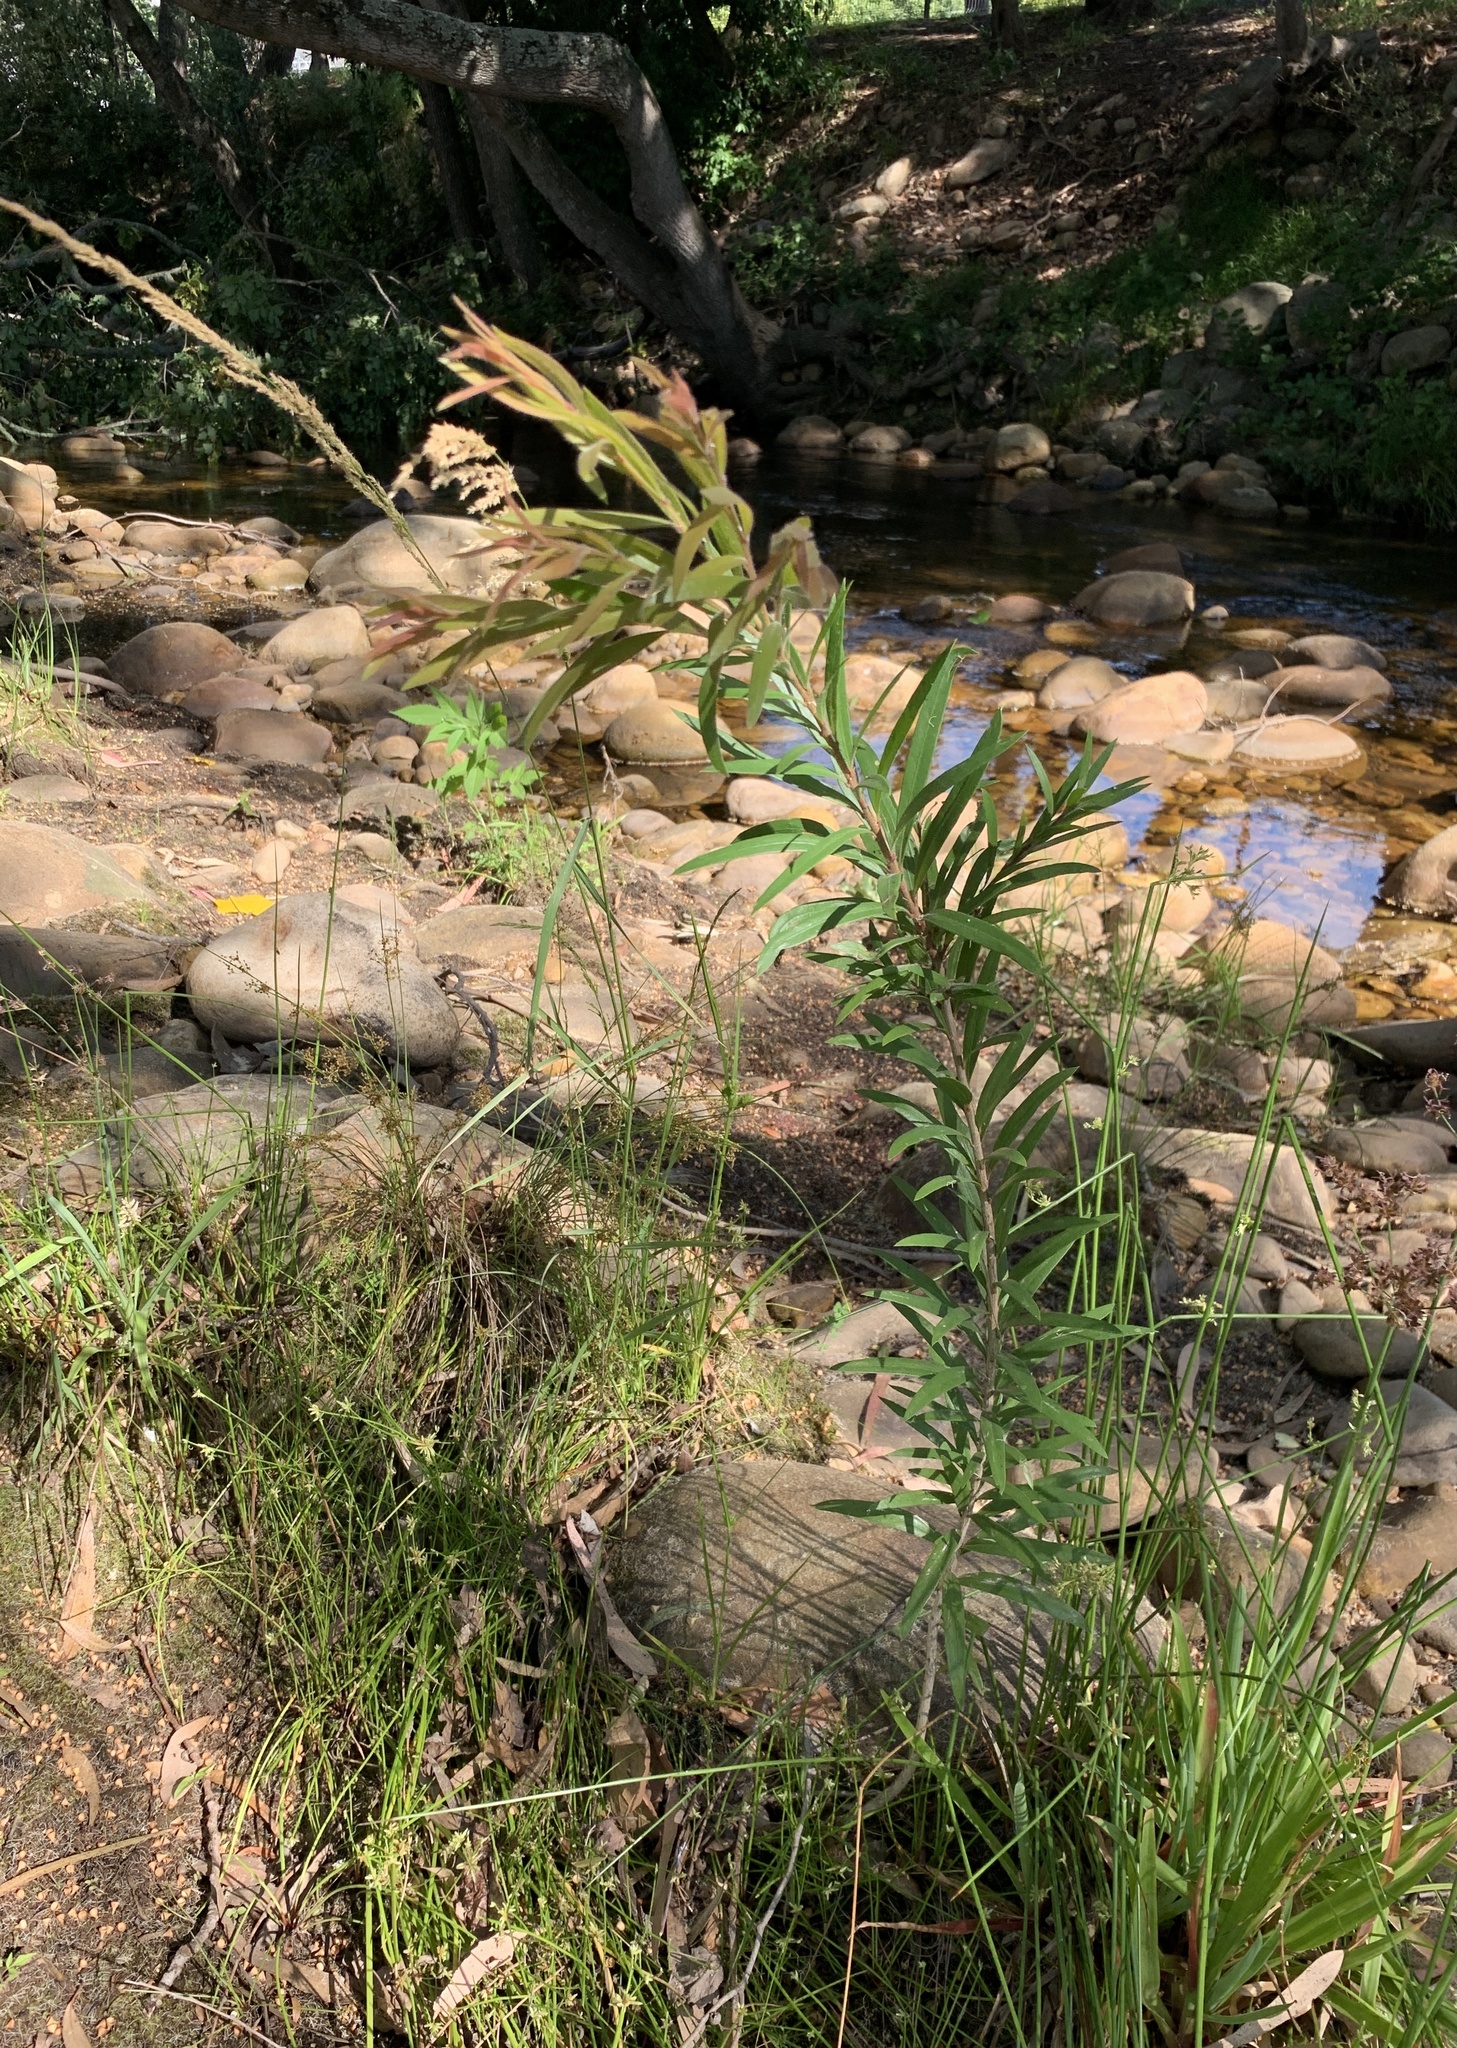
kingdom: Plantae
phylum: Tracheophyta
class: Magnoliopsida
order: Myrtales
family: Myrtaceae
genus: Callistemon
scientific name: Callistemon viminalis
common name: Drooping bottlebrush
